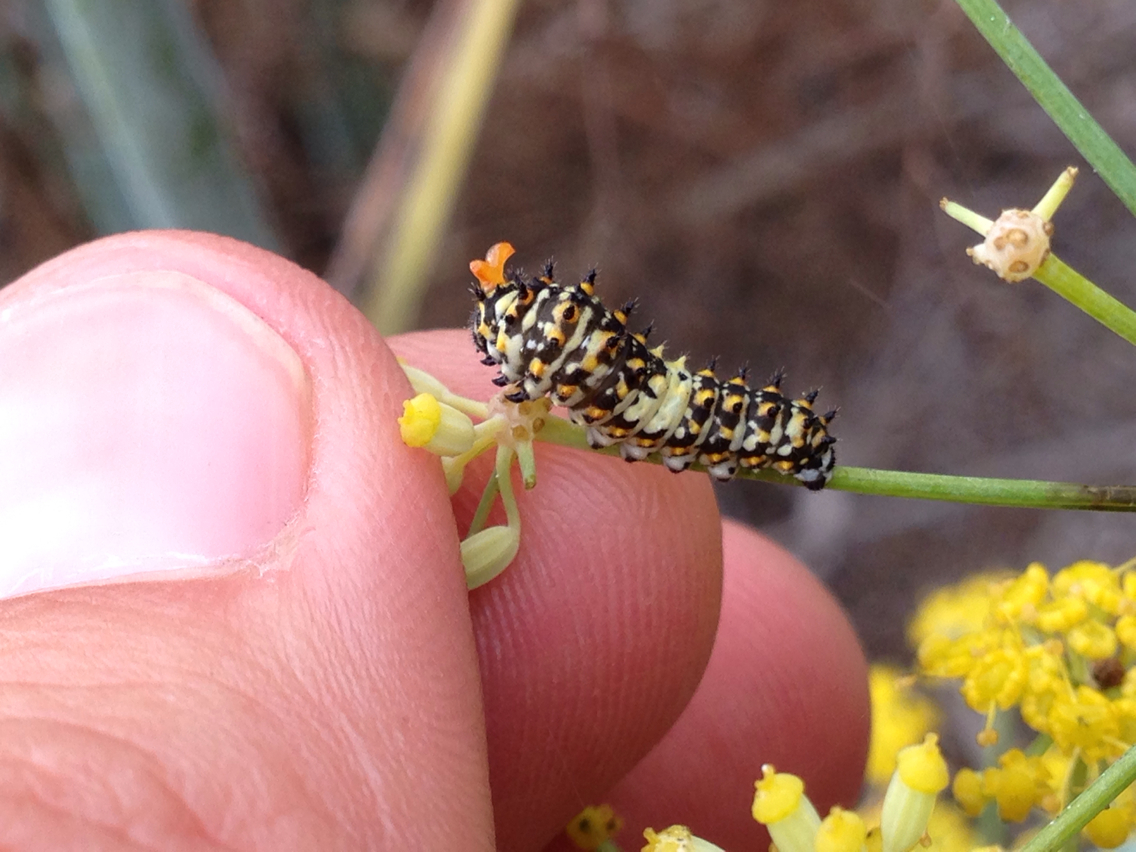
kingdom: Animalia
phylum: Arthropoda
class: Insecta
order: Lepidoptera
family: Papilionidae
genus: Papilio
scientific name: Papilio zelicaon
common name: Anise swallowtail
